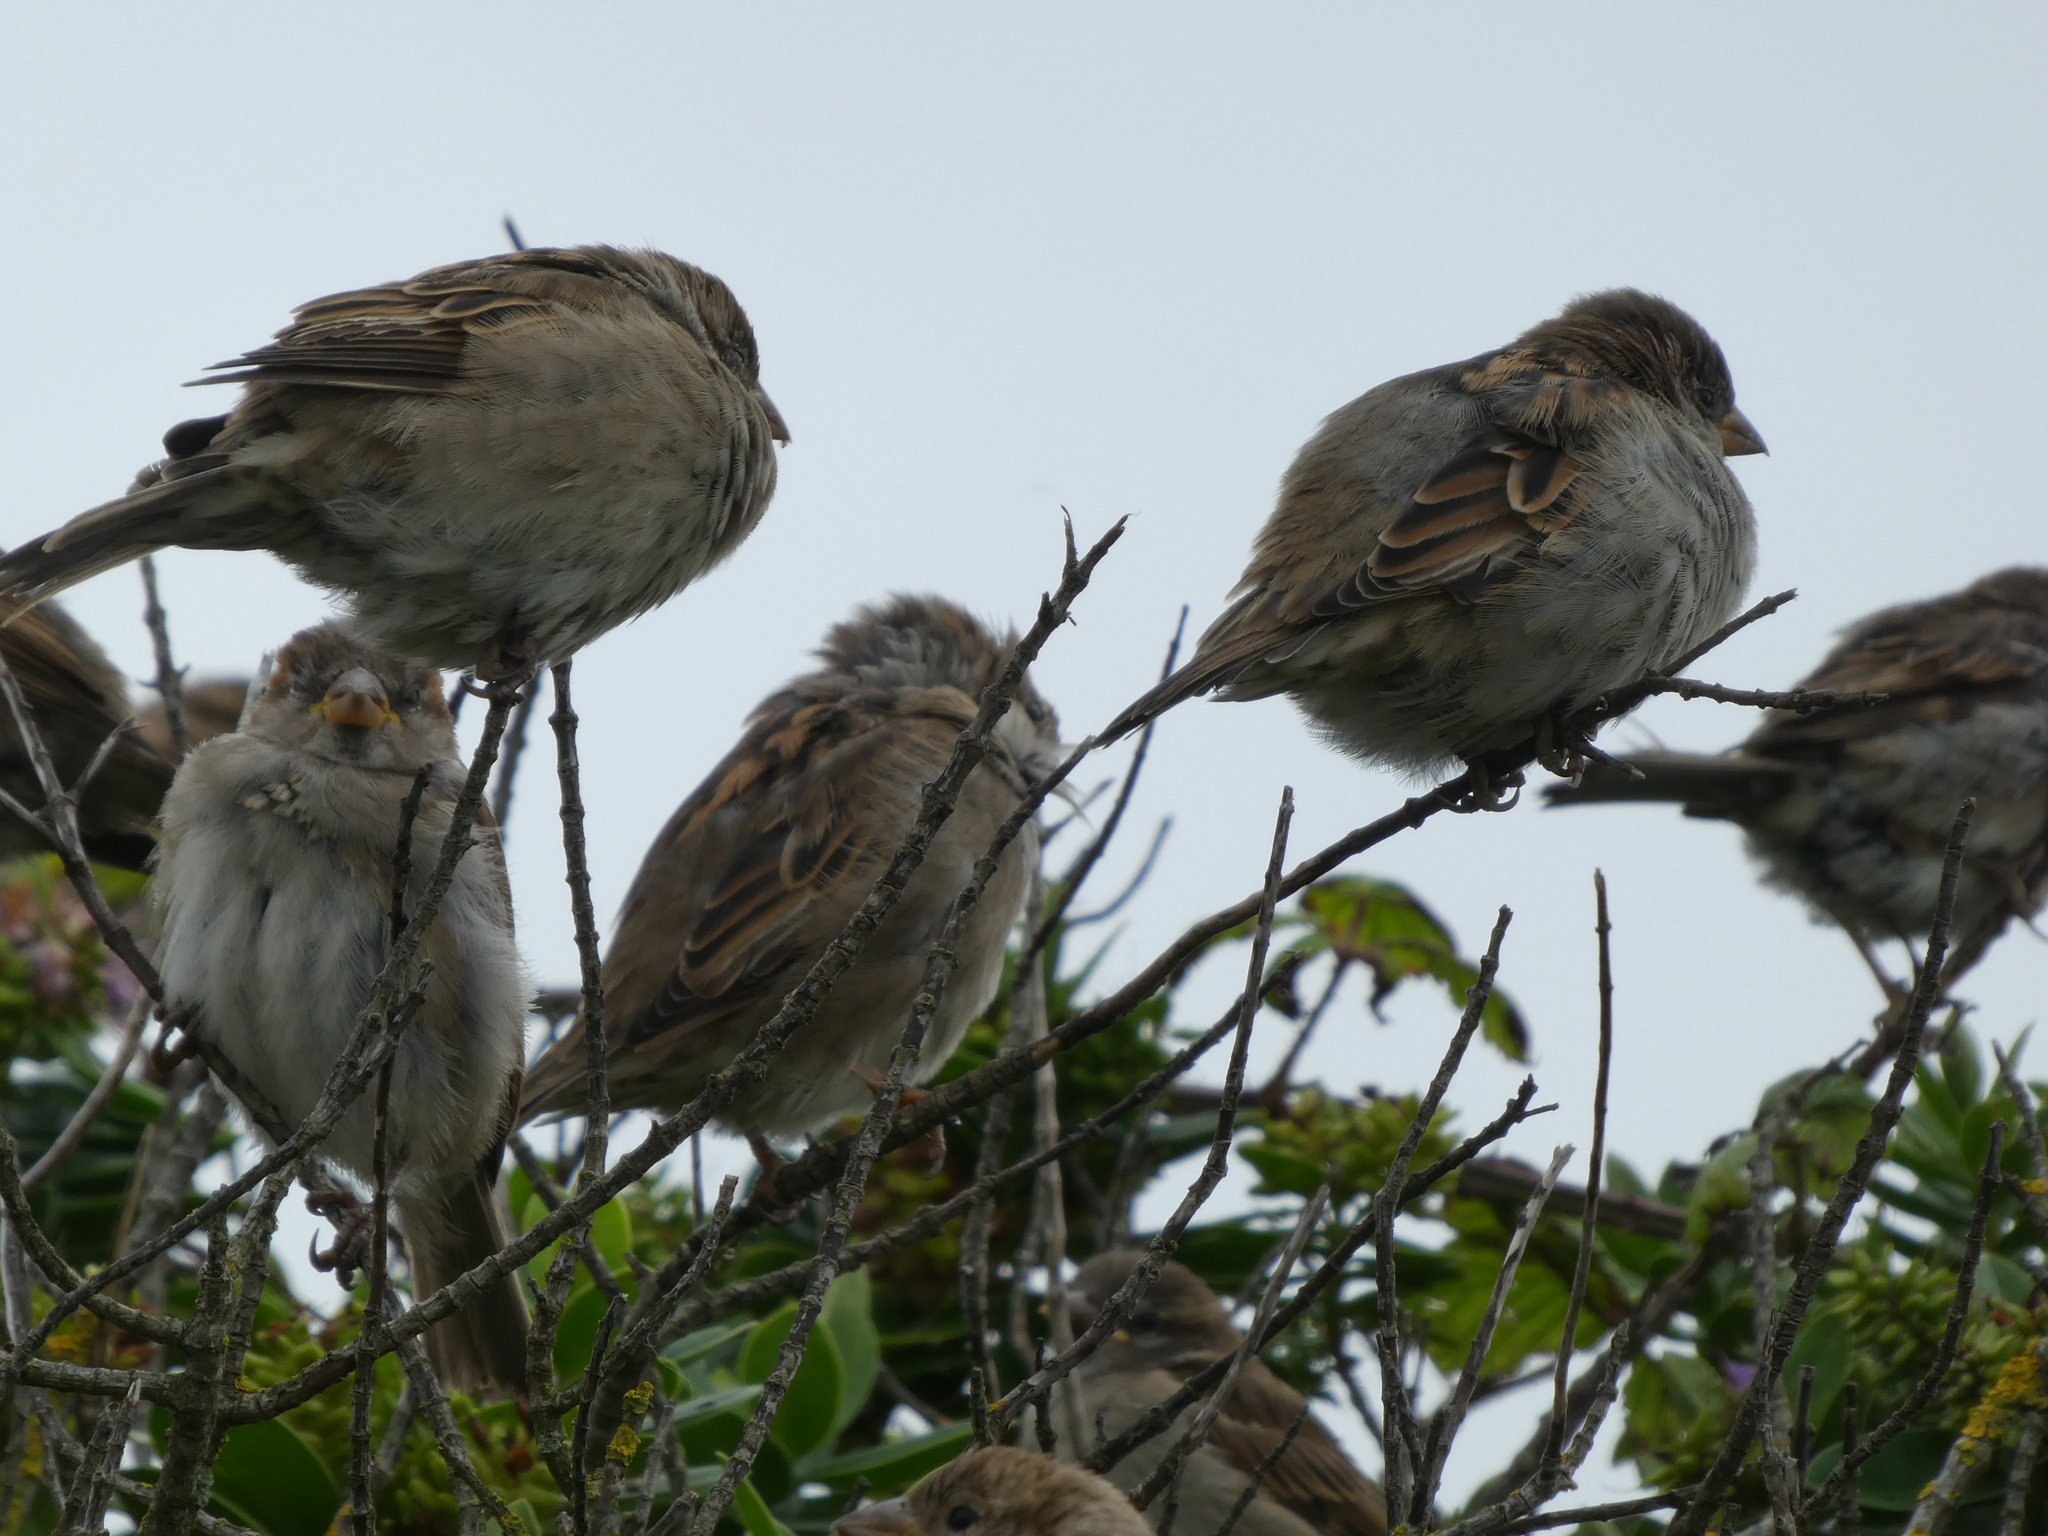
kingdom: Animalia
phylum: Chordata
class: Aves
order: Passeriformes
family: Passeridae
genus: Passer
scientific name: Passer domesticus
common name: House sparrow
